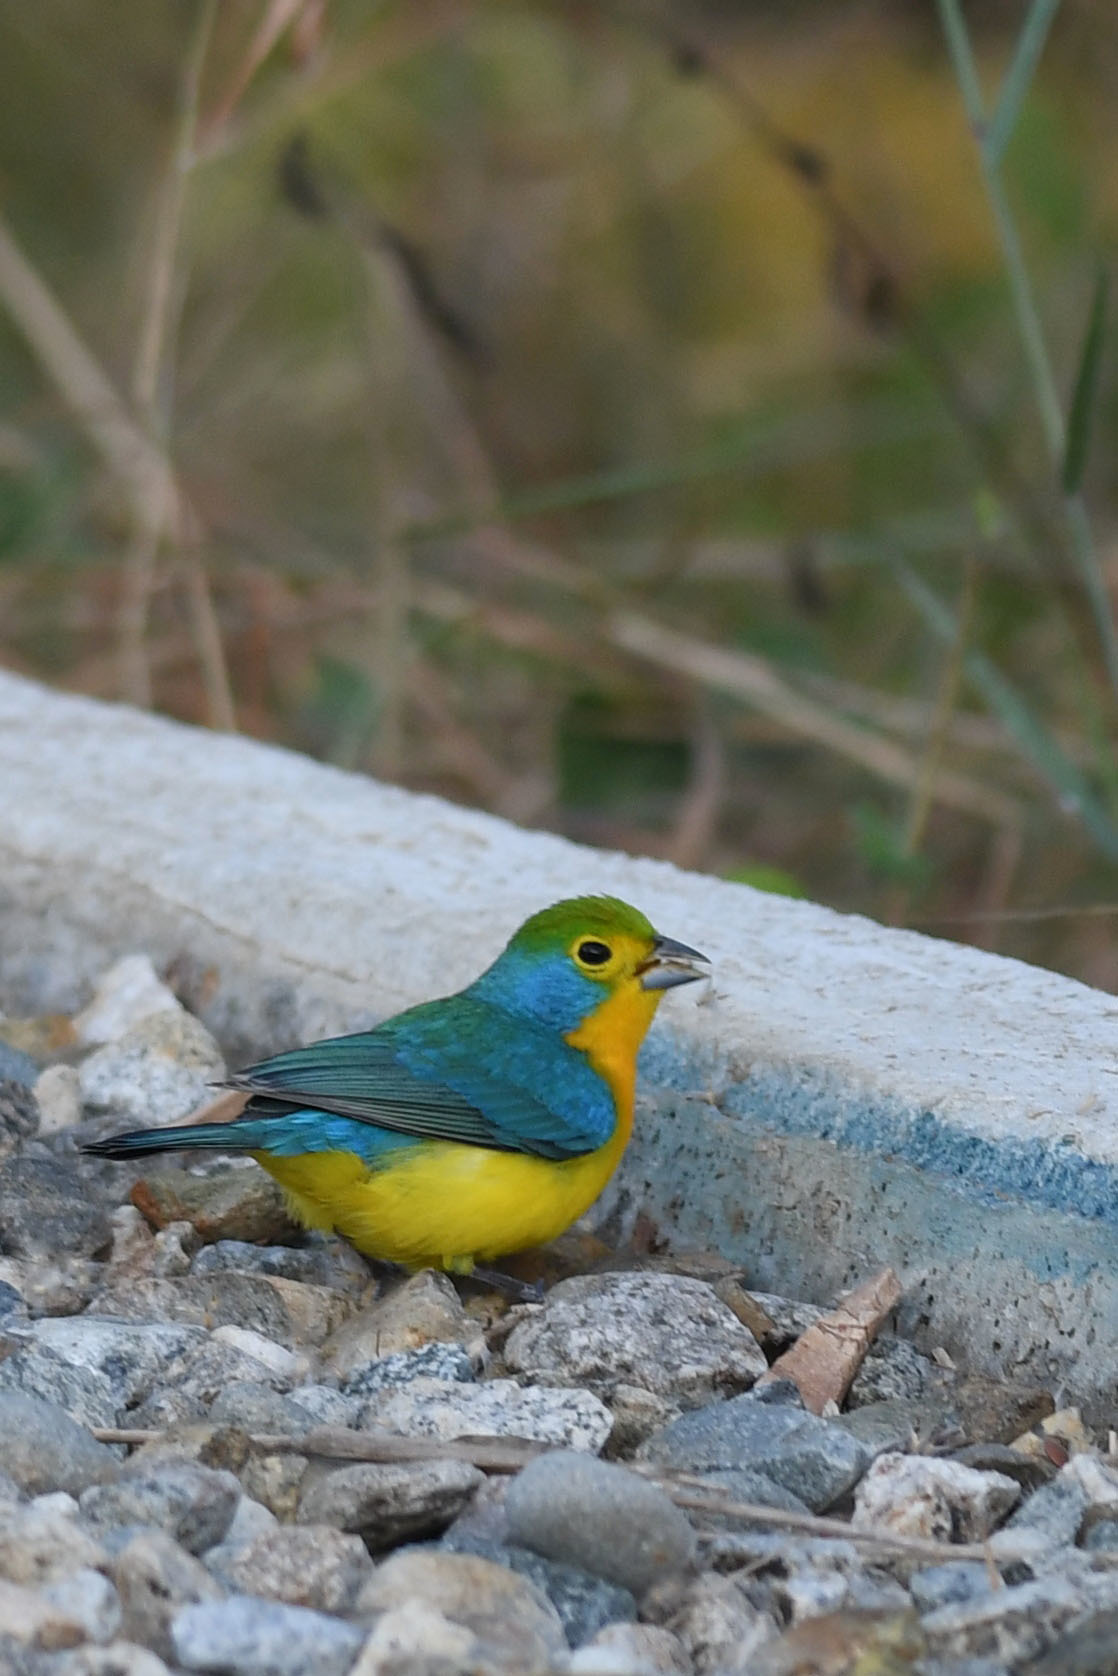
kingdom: Animalia
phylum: Chordata
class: Aves
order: Passeriformes
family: Cardinalidae
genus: Passerina
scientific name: Passerina leclancherii
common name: Orange-breasted bunting
